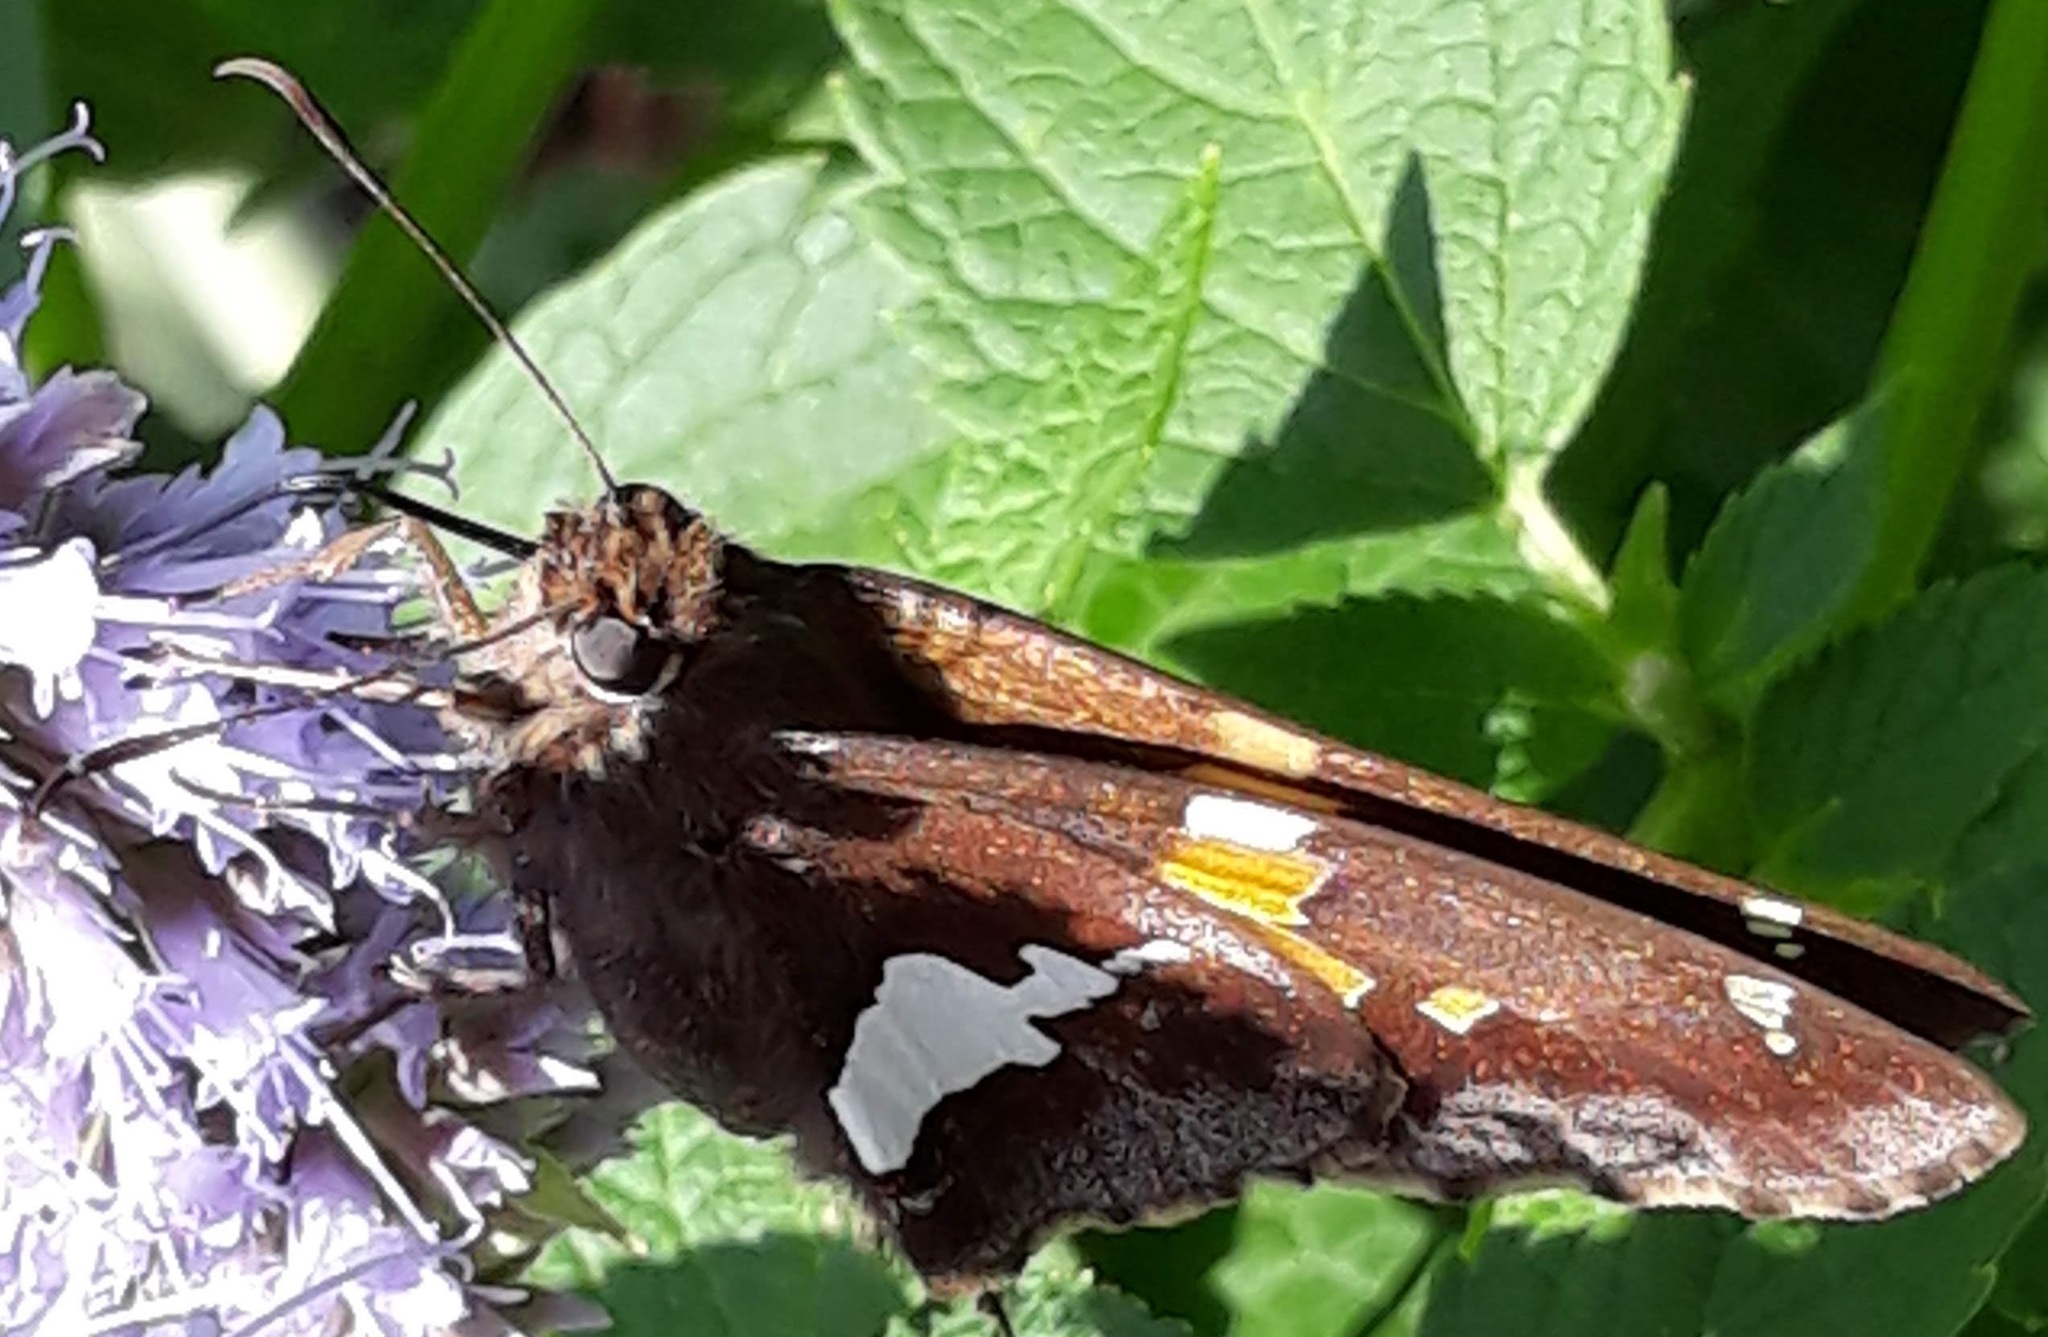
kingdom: Animalia
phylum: Arthropoda
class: Insecta
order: Lepidoptera
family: Hesperiidae
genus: Epargyreus
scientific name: Epargyreus clarus
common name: Silver-spotted skipper
